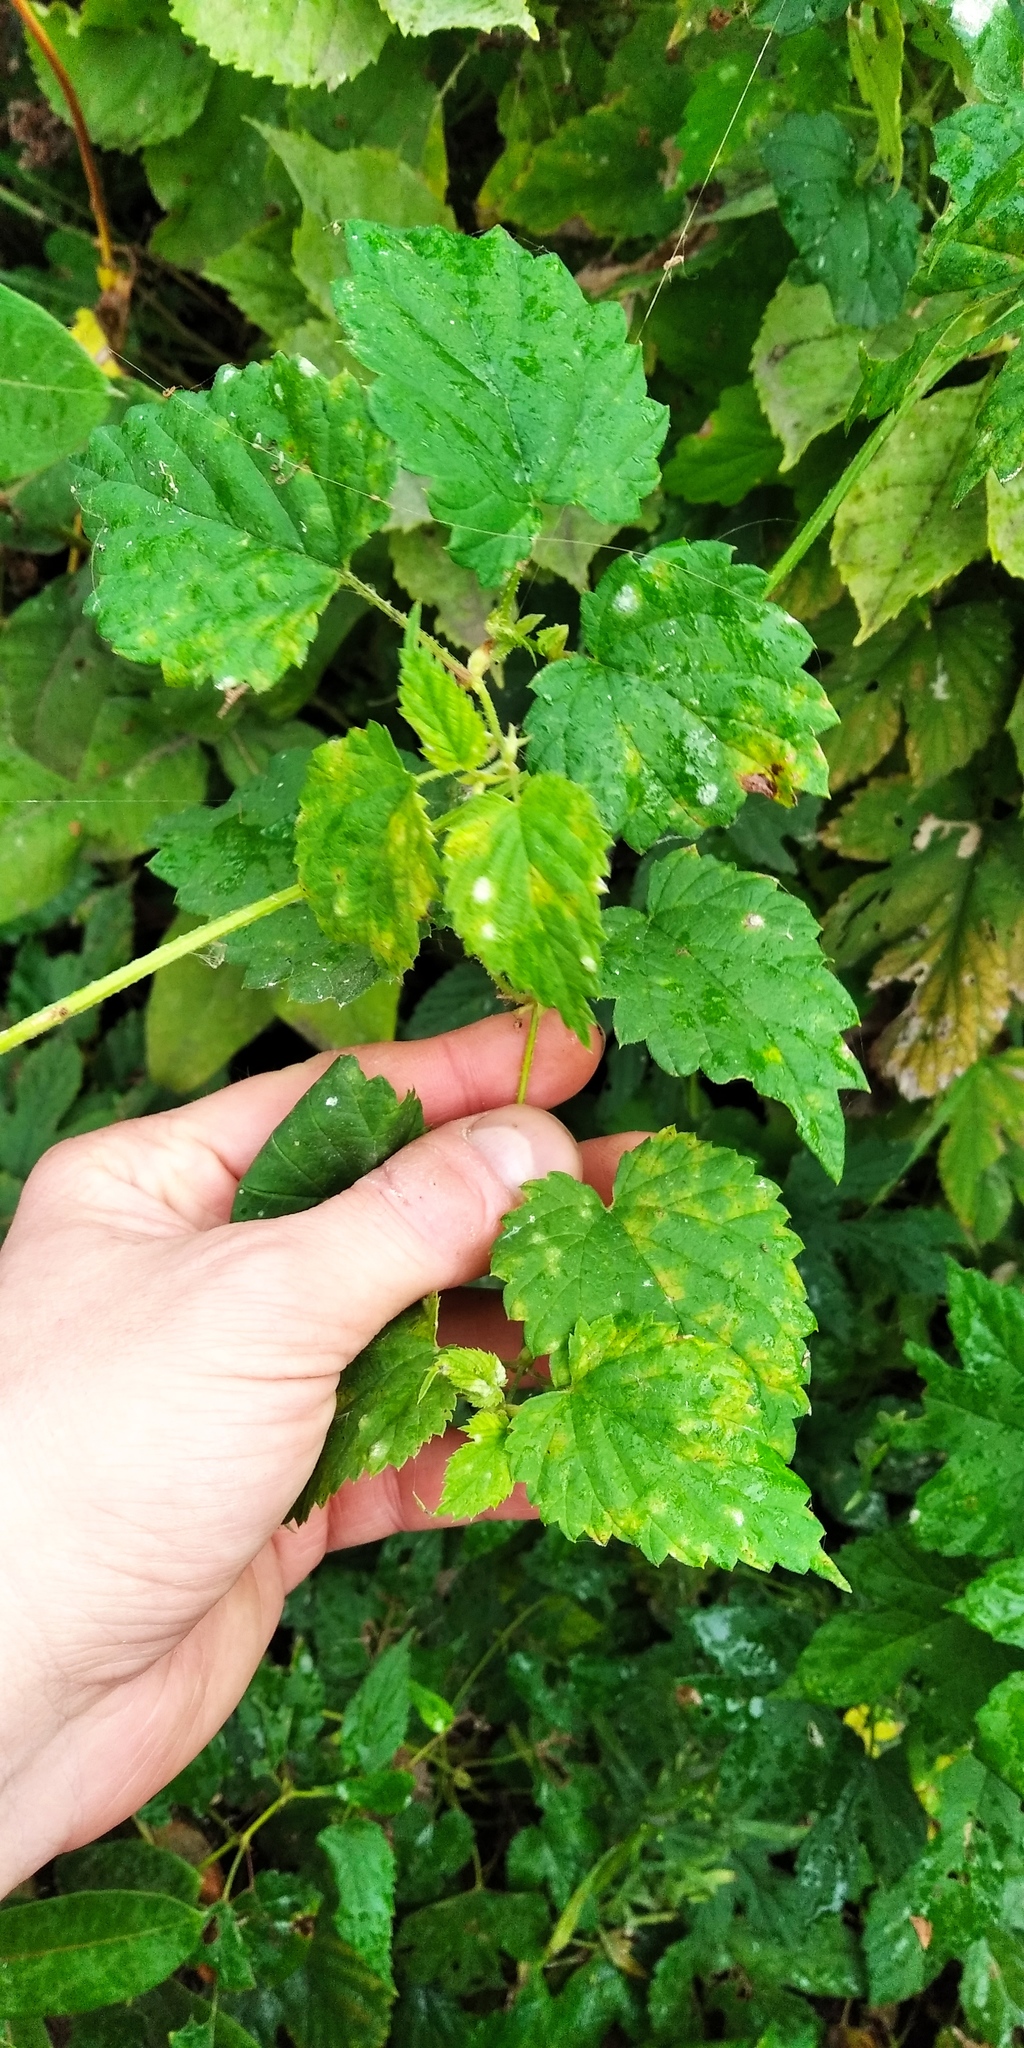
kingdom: Plantae
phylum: Tracheophyta
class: Magnoliopsida
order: Rosales
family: Cannabaceae
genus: Humulus
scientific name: Humulus lupulus
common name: Hop
